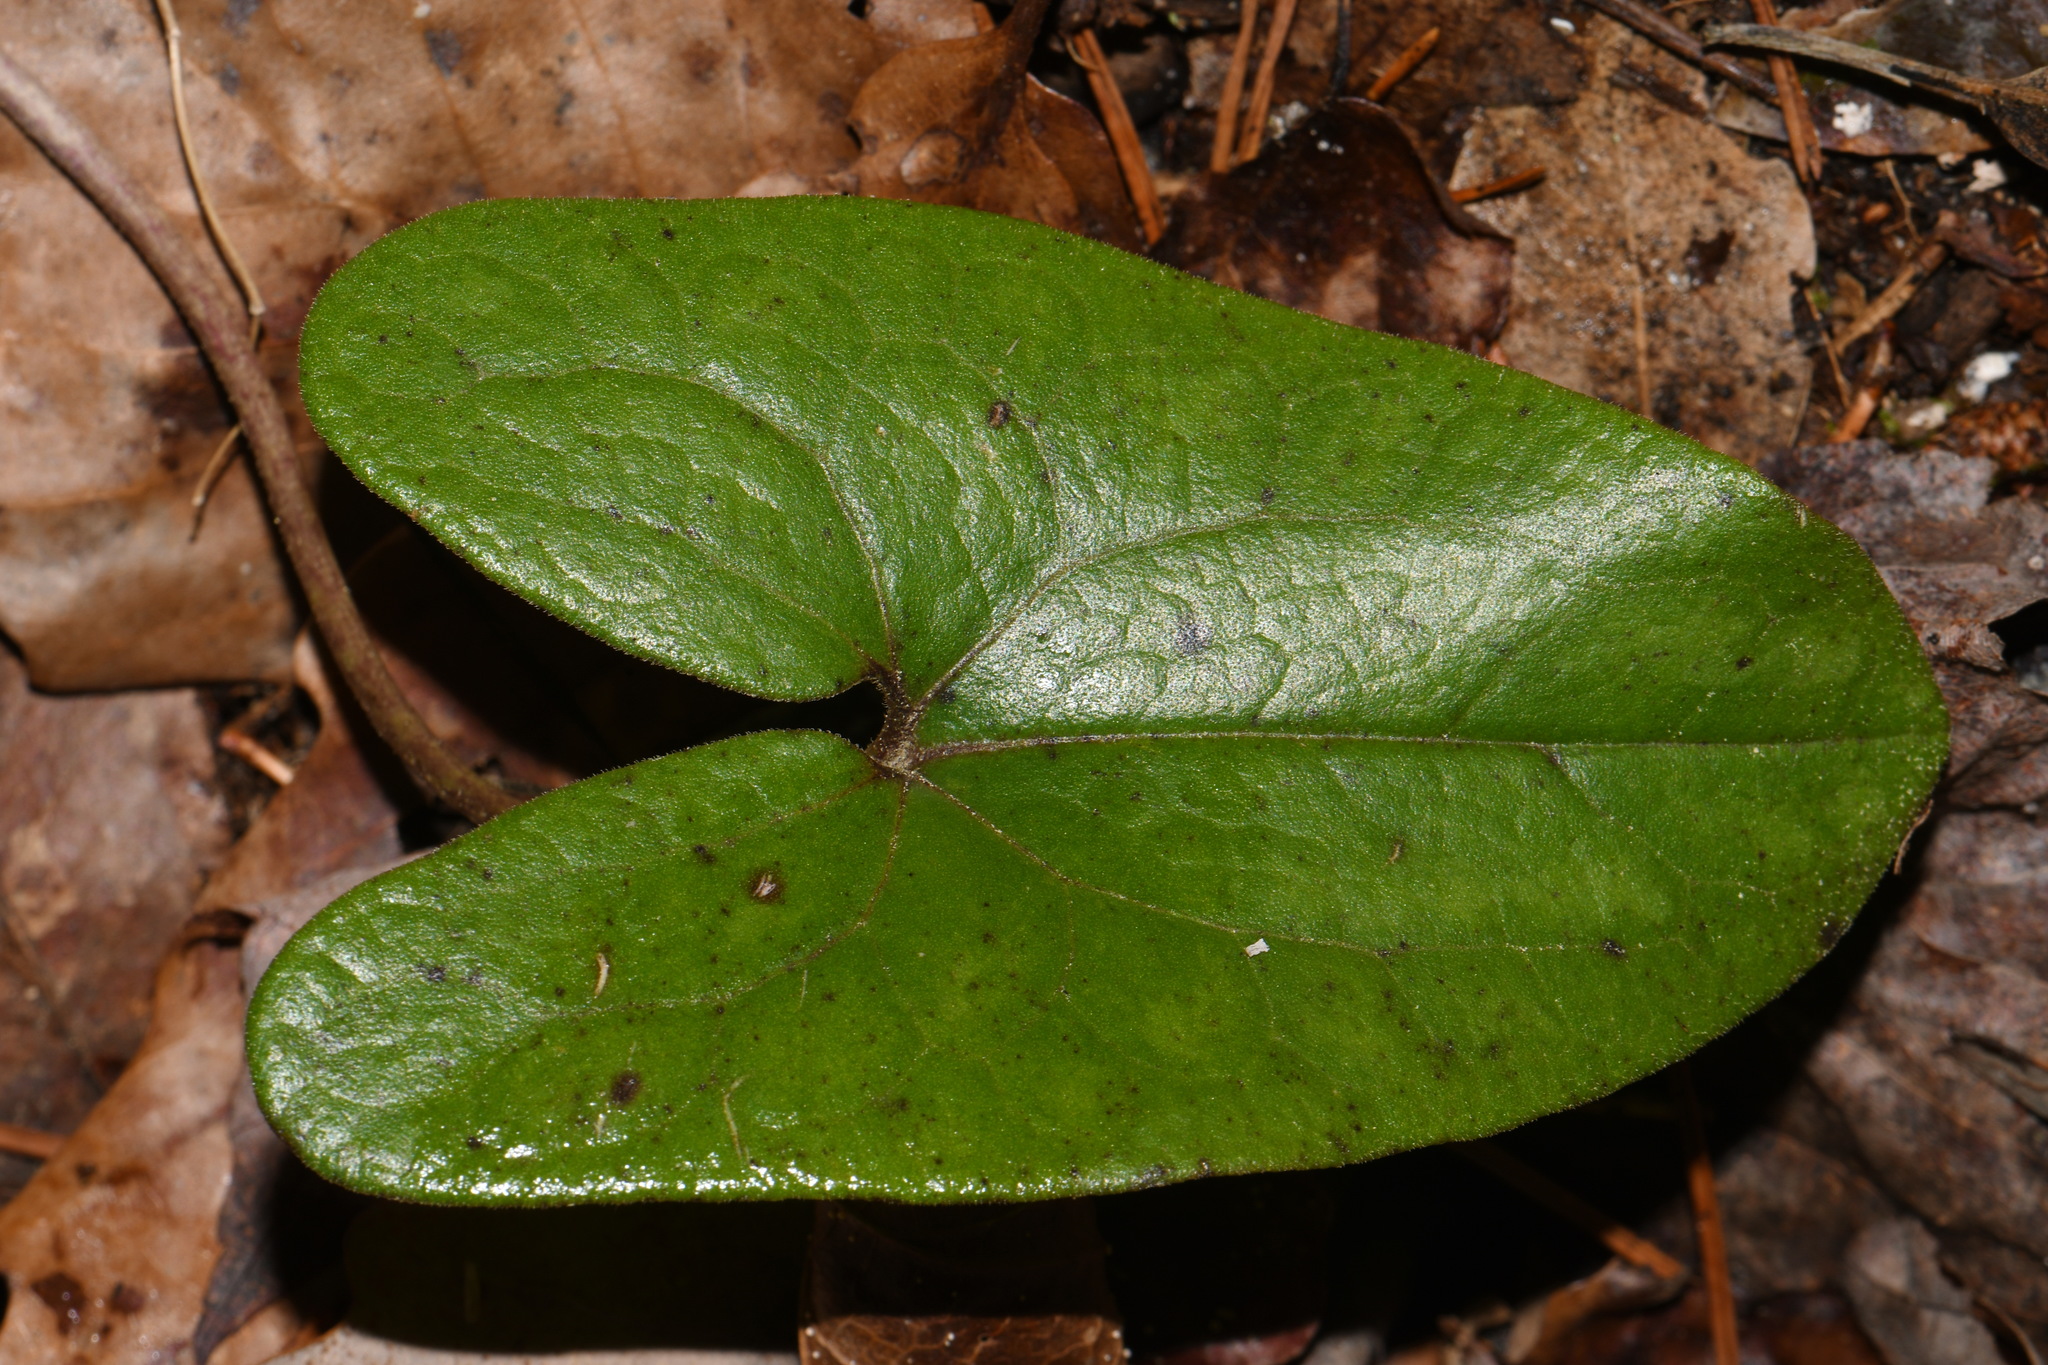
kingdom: Plantae
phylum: Tracheophyta
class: Magnoliopsida
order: Piperales
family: Aristolochiaceae
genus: Hexastylis
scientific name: Hexastylis arifolia
